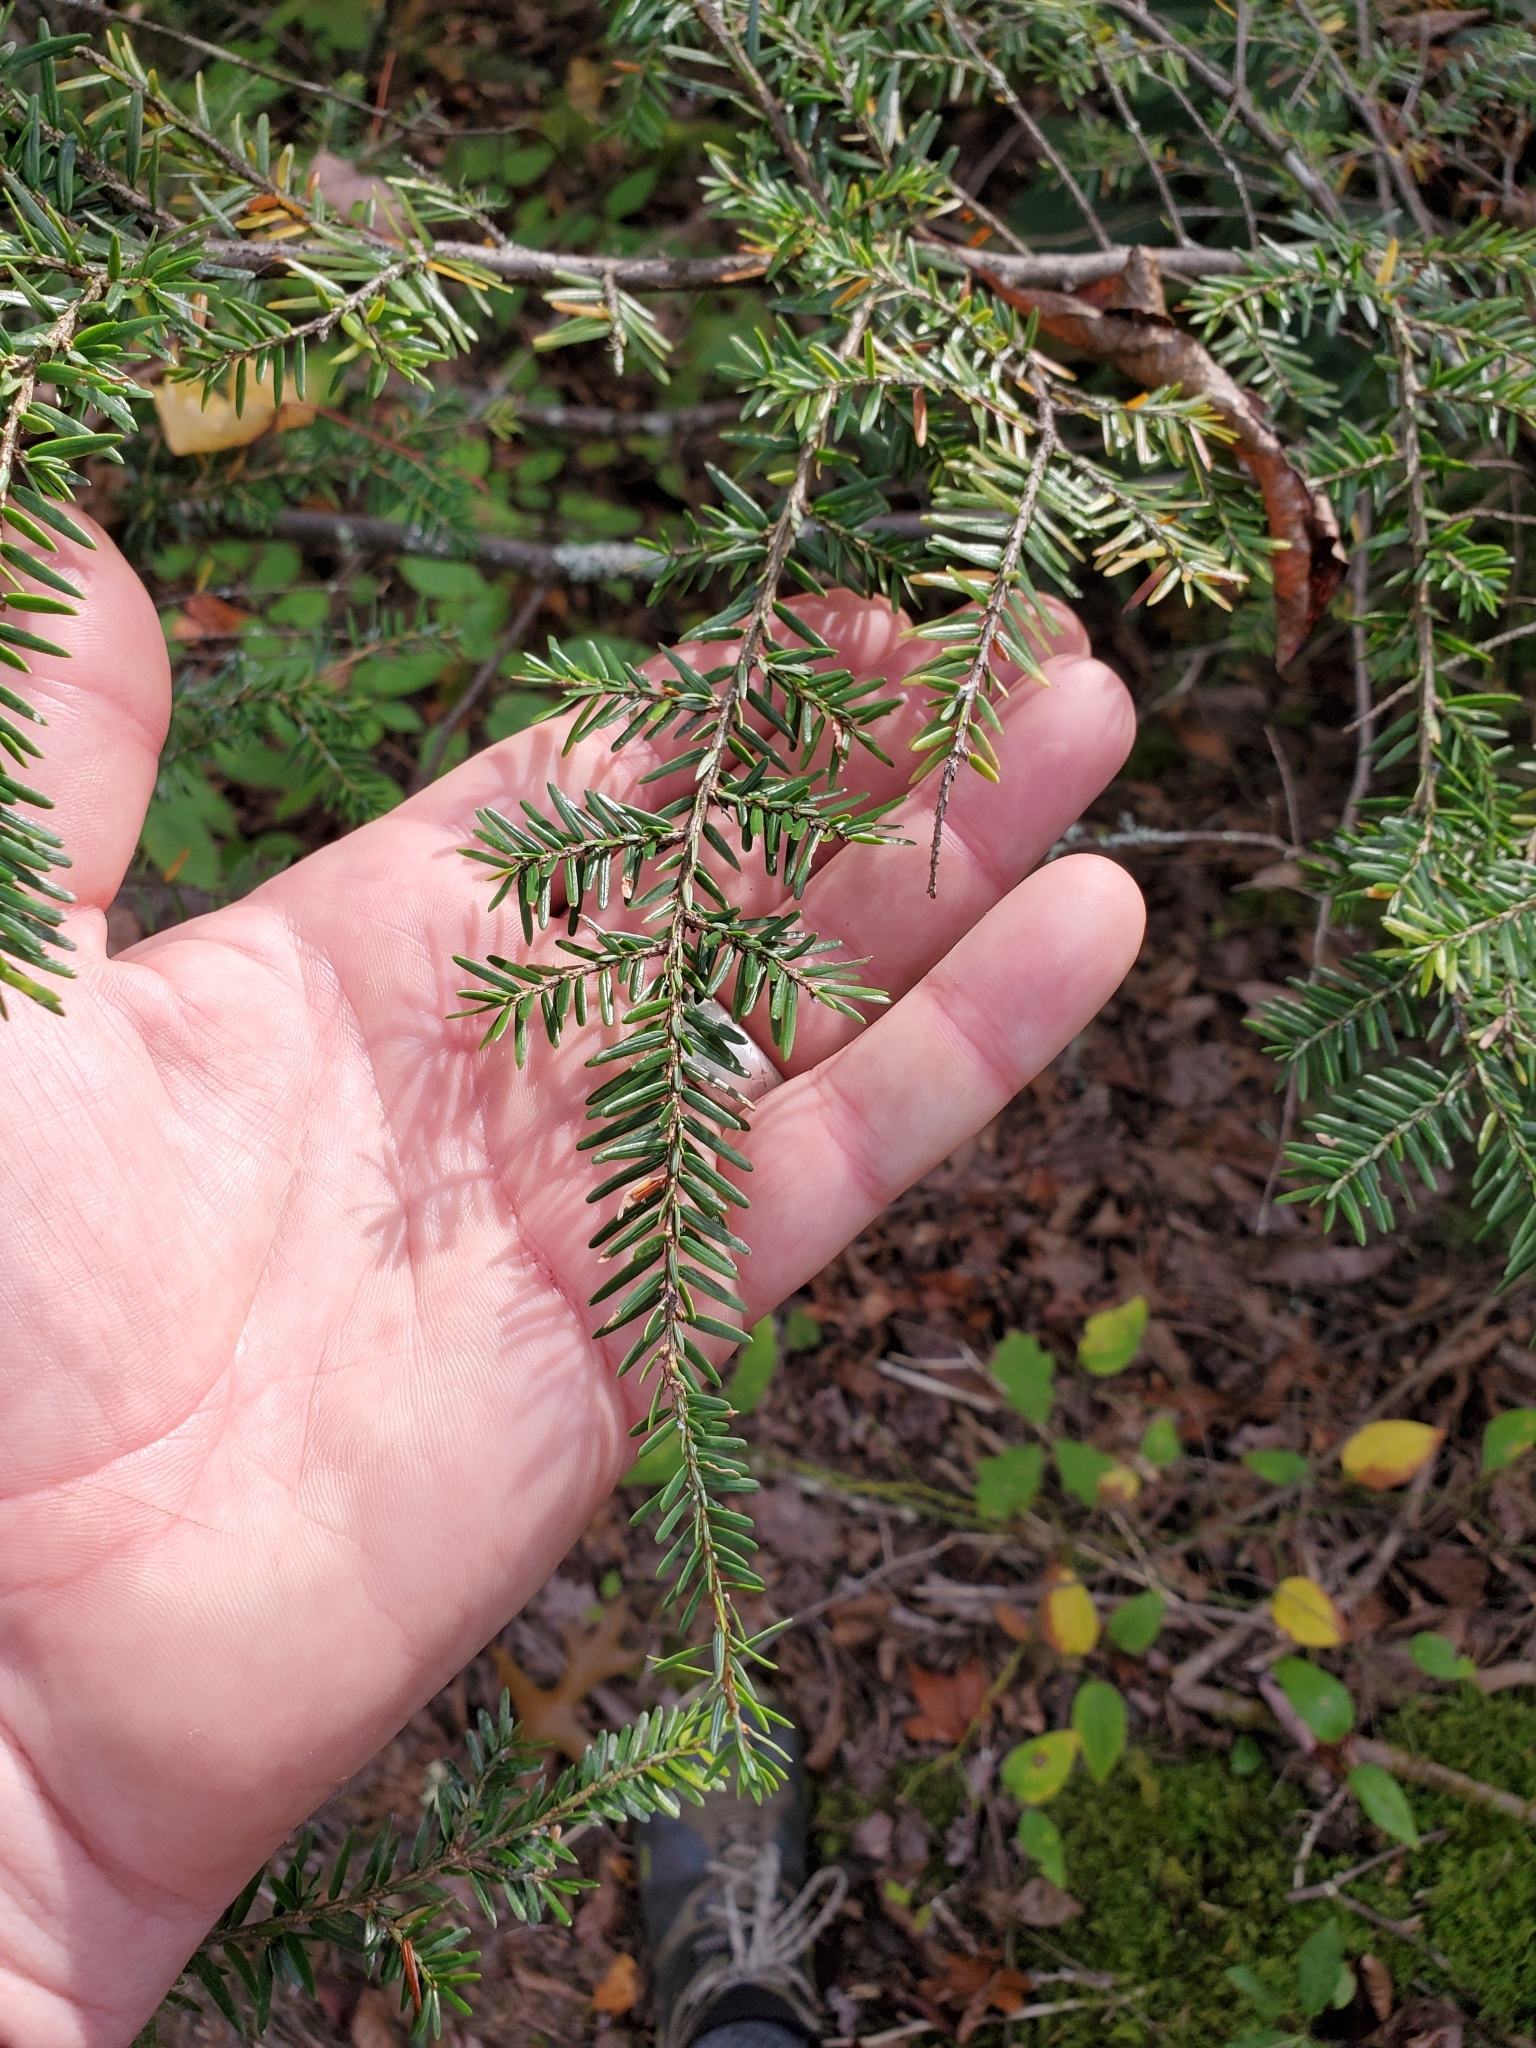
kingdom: Plantae
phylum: Tracheophyta
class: Pinopsida
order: Pinales
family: Pinaceae
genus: Tsuga
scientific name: Tsuga canadensis
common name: Eastern hemlock
